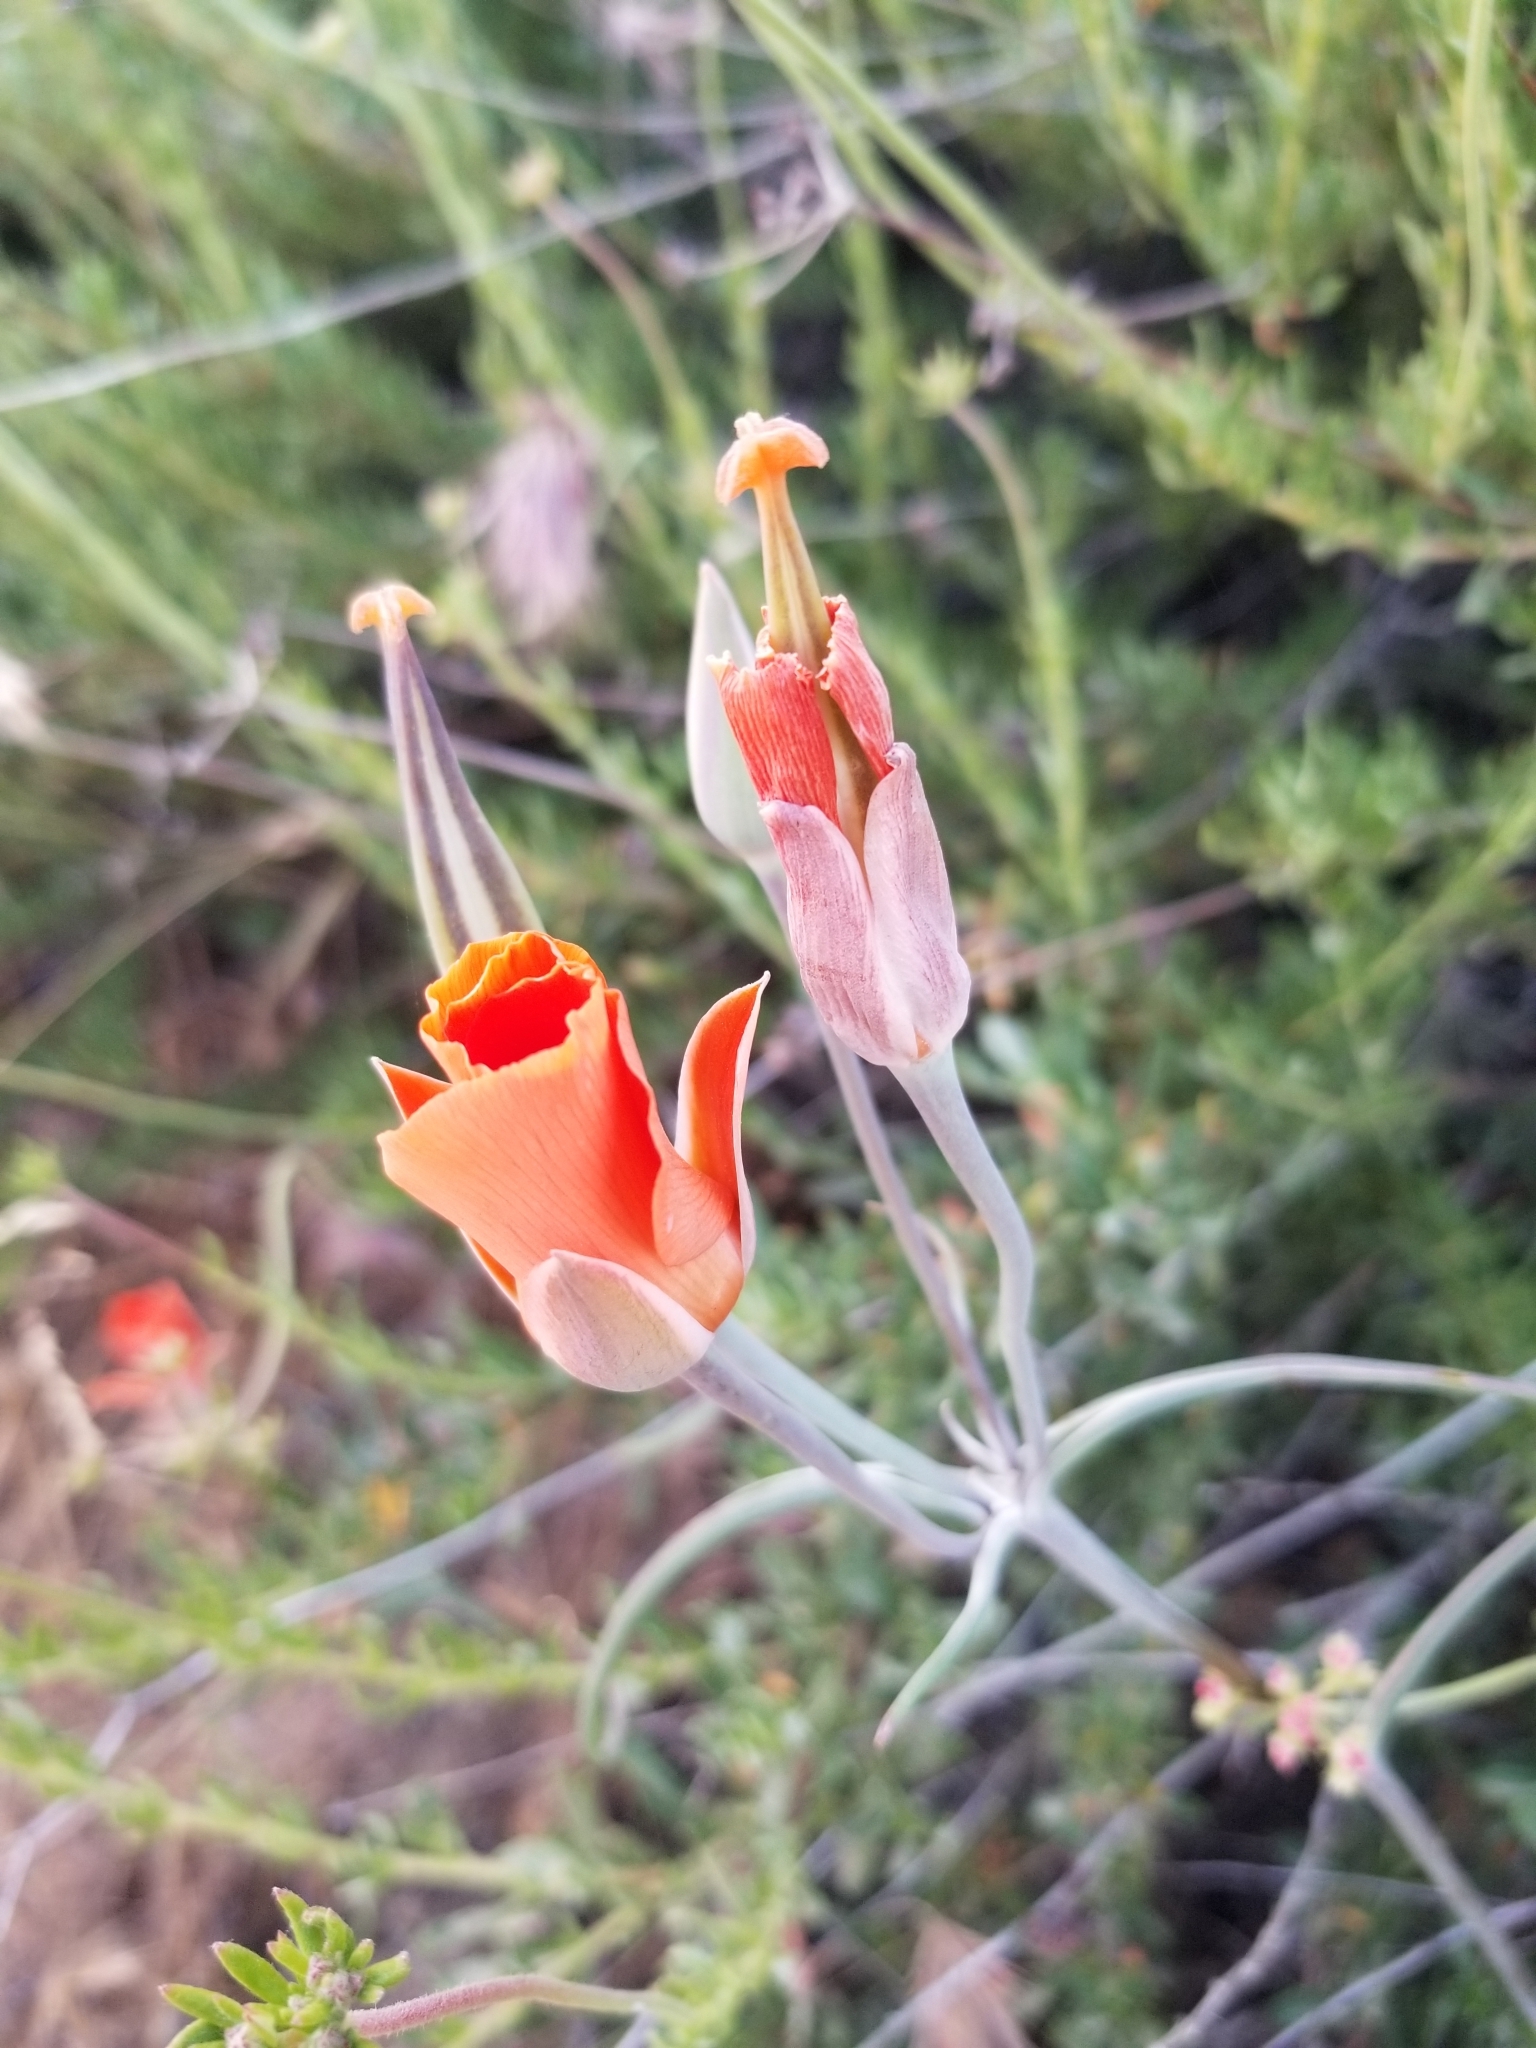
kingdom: Plantae
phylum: Tracheophyta
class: Liliopsida
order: Liliales
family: Liliaceae
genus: Calochortus
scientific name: Calochortus kennedyi
